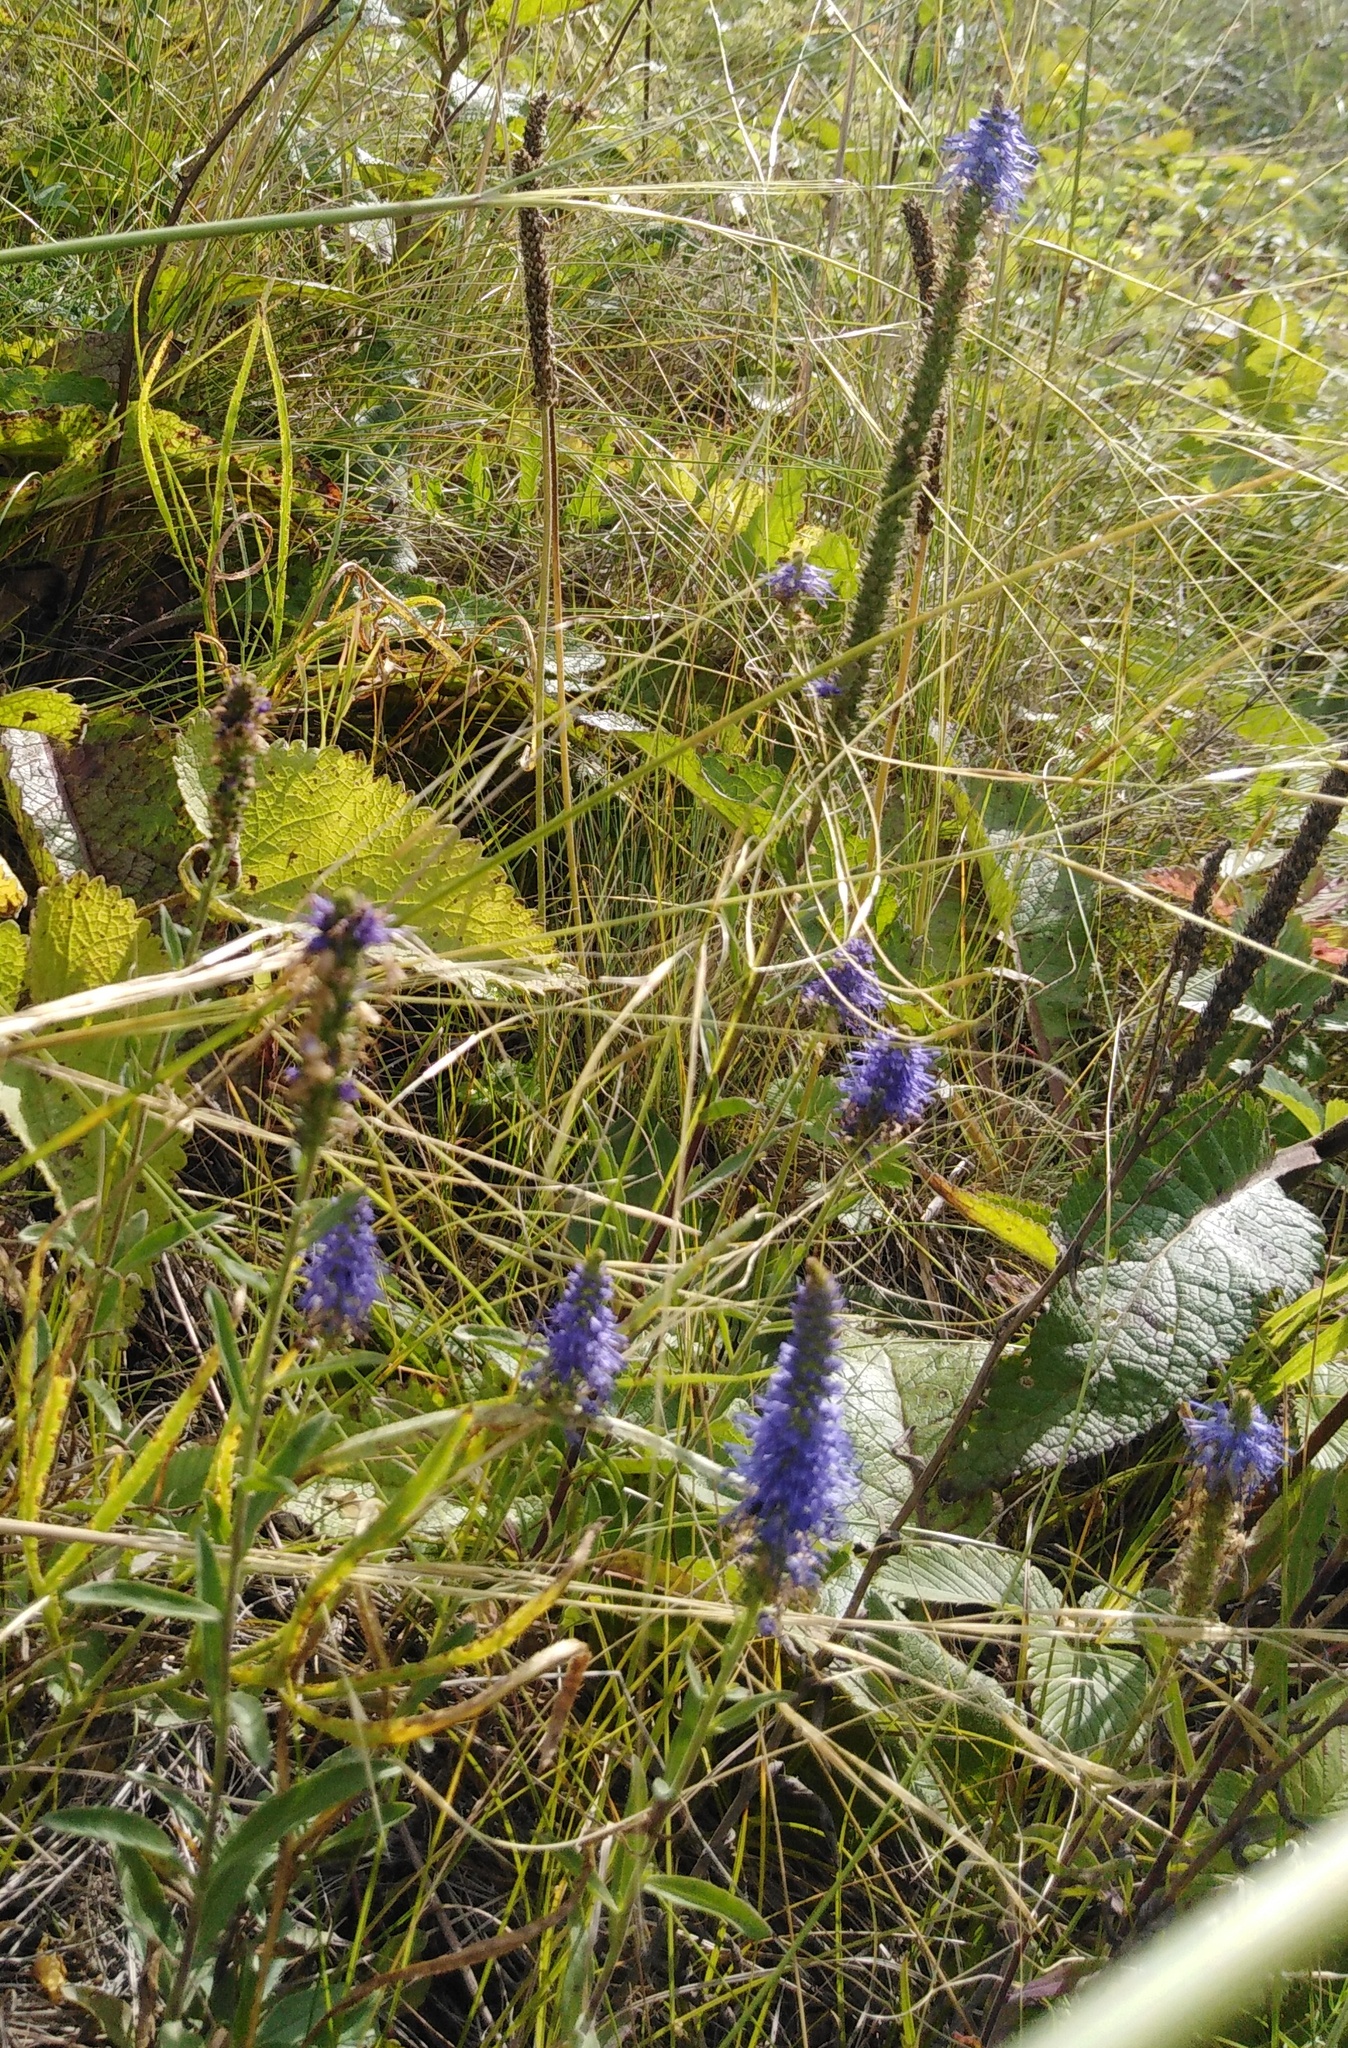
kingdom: Plantae
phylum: Tracheophyta
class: Magnoliopsida
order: Lamiales
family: Plantaginaceae
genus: Veronica
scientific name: Veronica spicata
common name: Spiked speedwell
